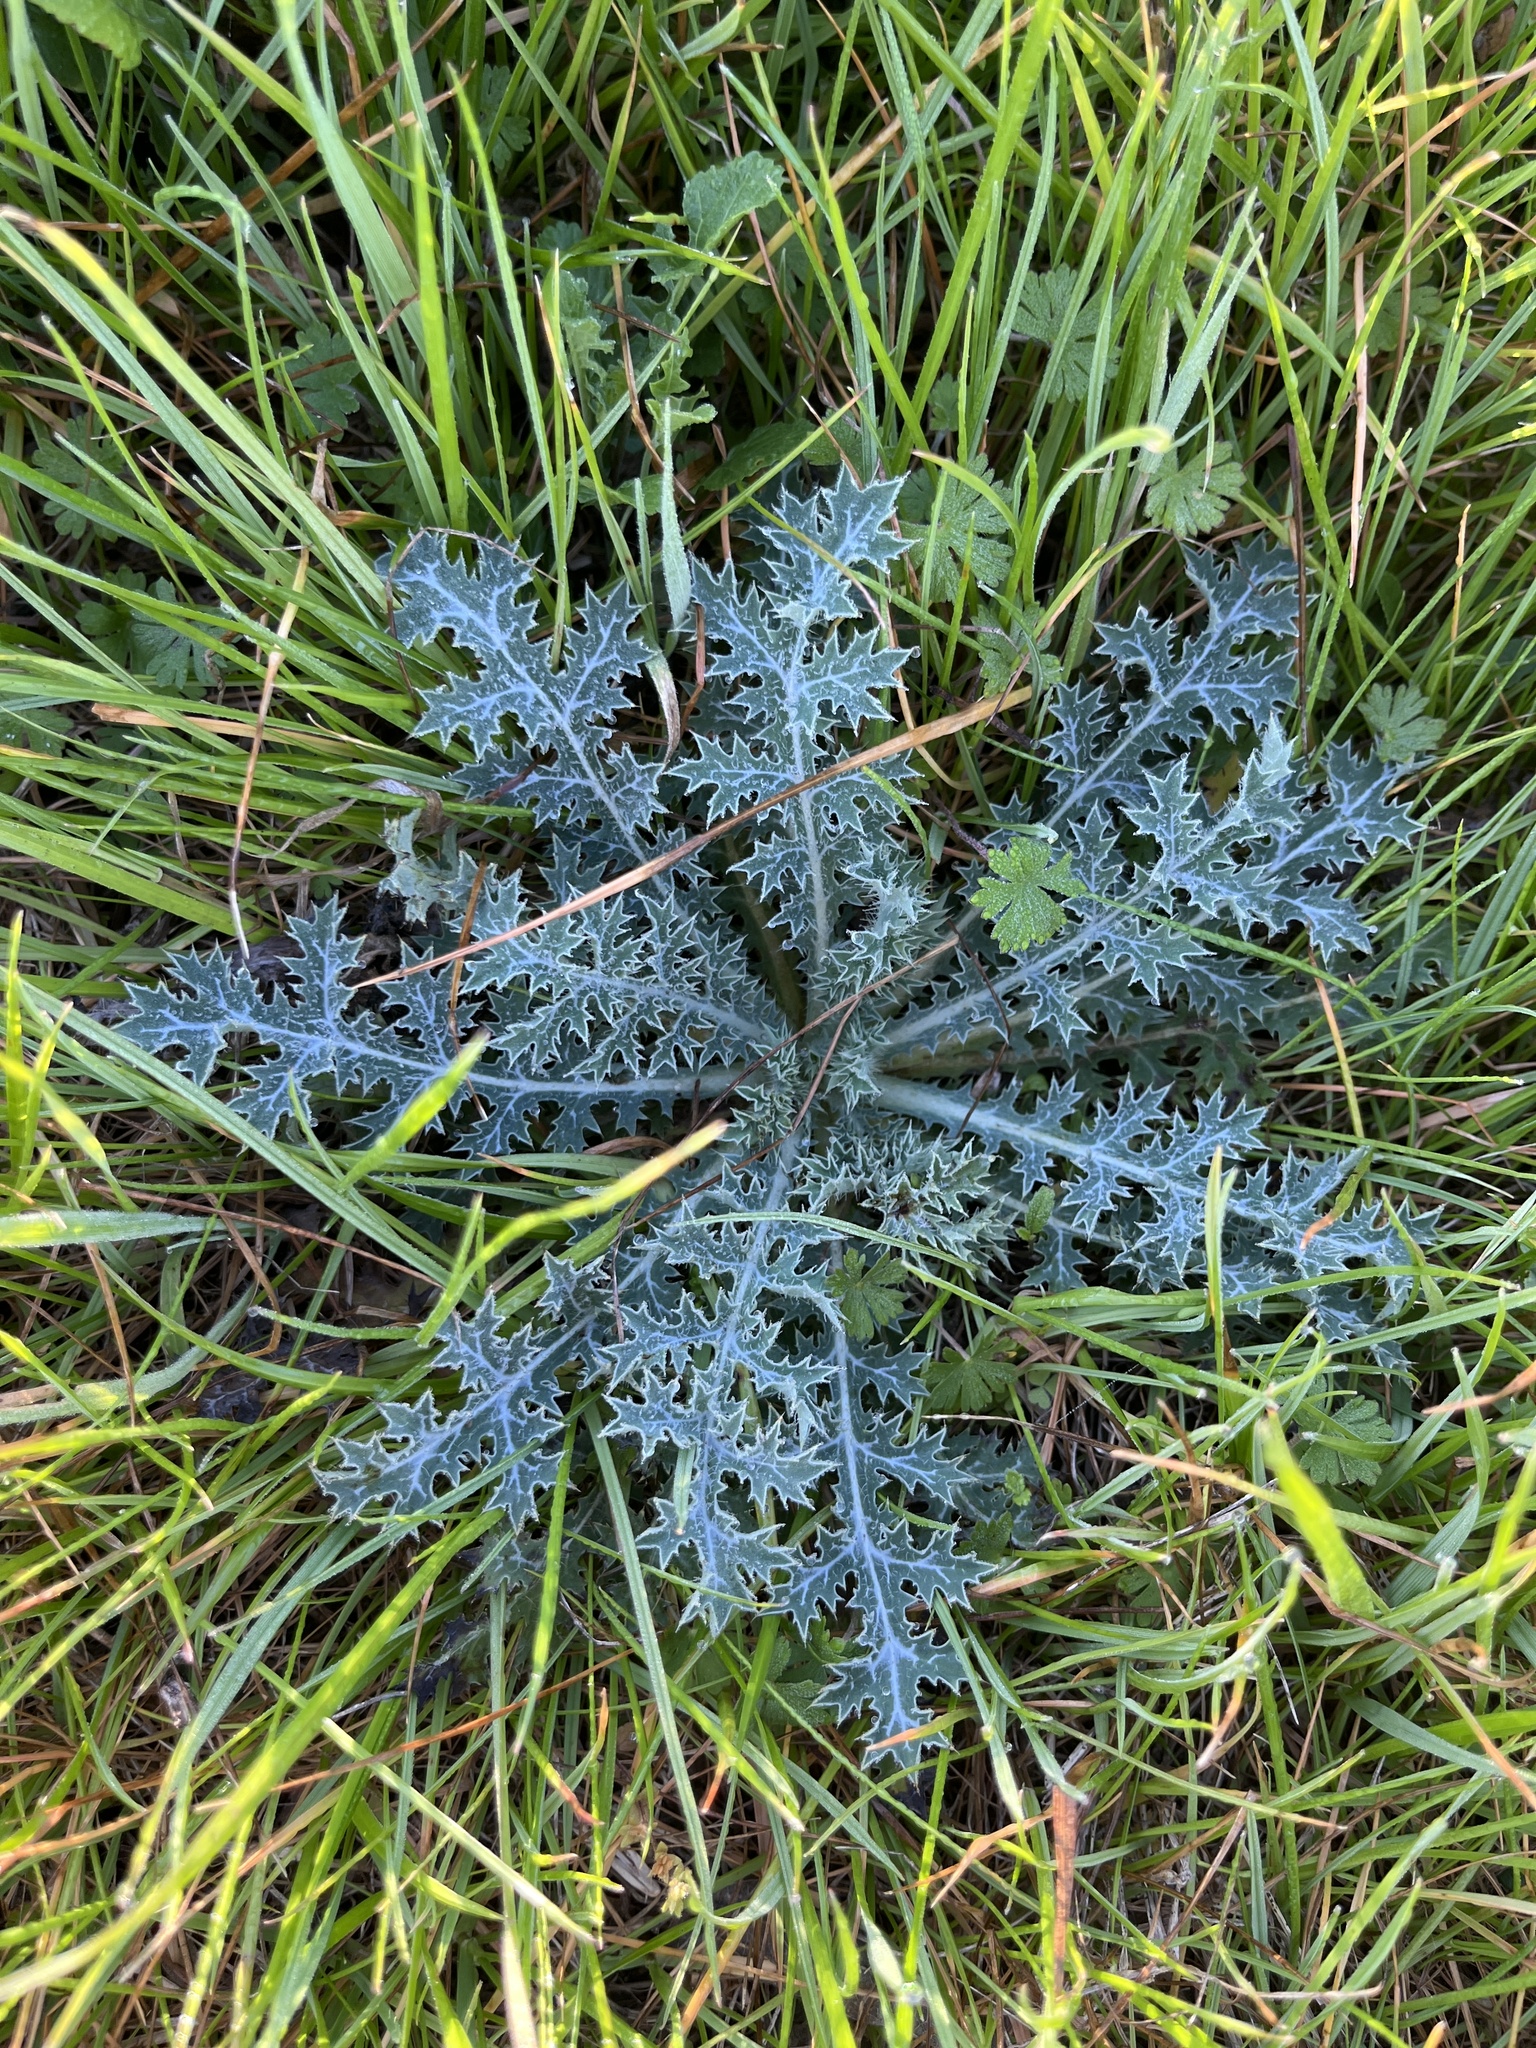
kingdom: Plantae
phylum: Tracheophyta
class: Magnoliopsida
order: Ranunculales
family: Papaveraceae
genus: Argemone
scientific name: Argemone aurantiaca
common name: Texas prickly-poppy
